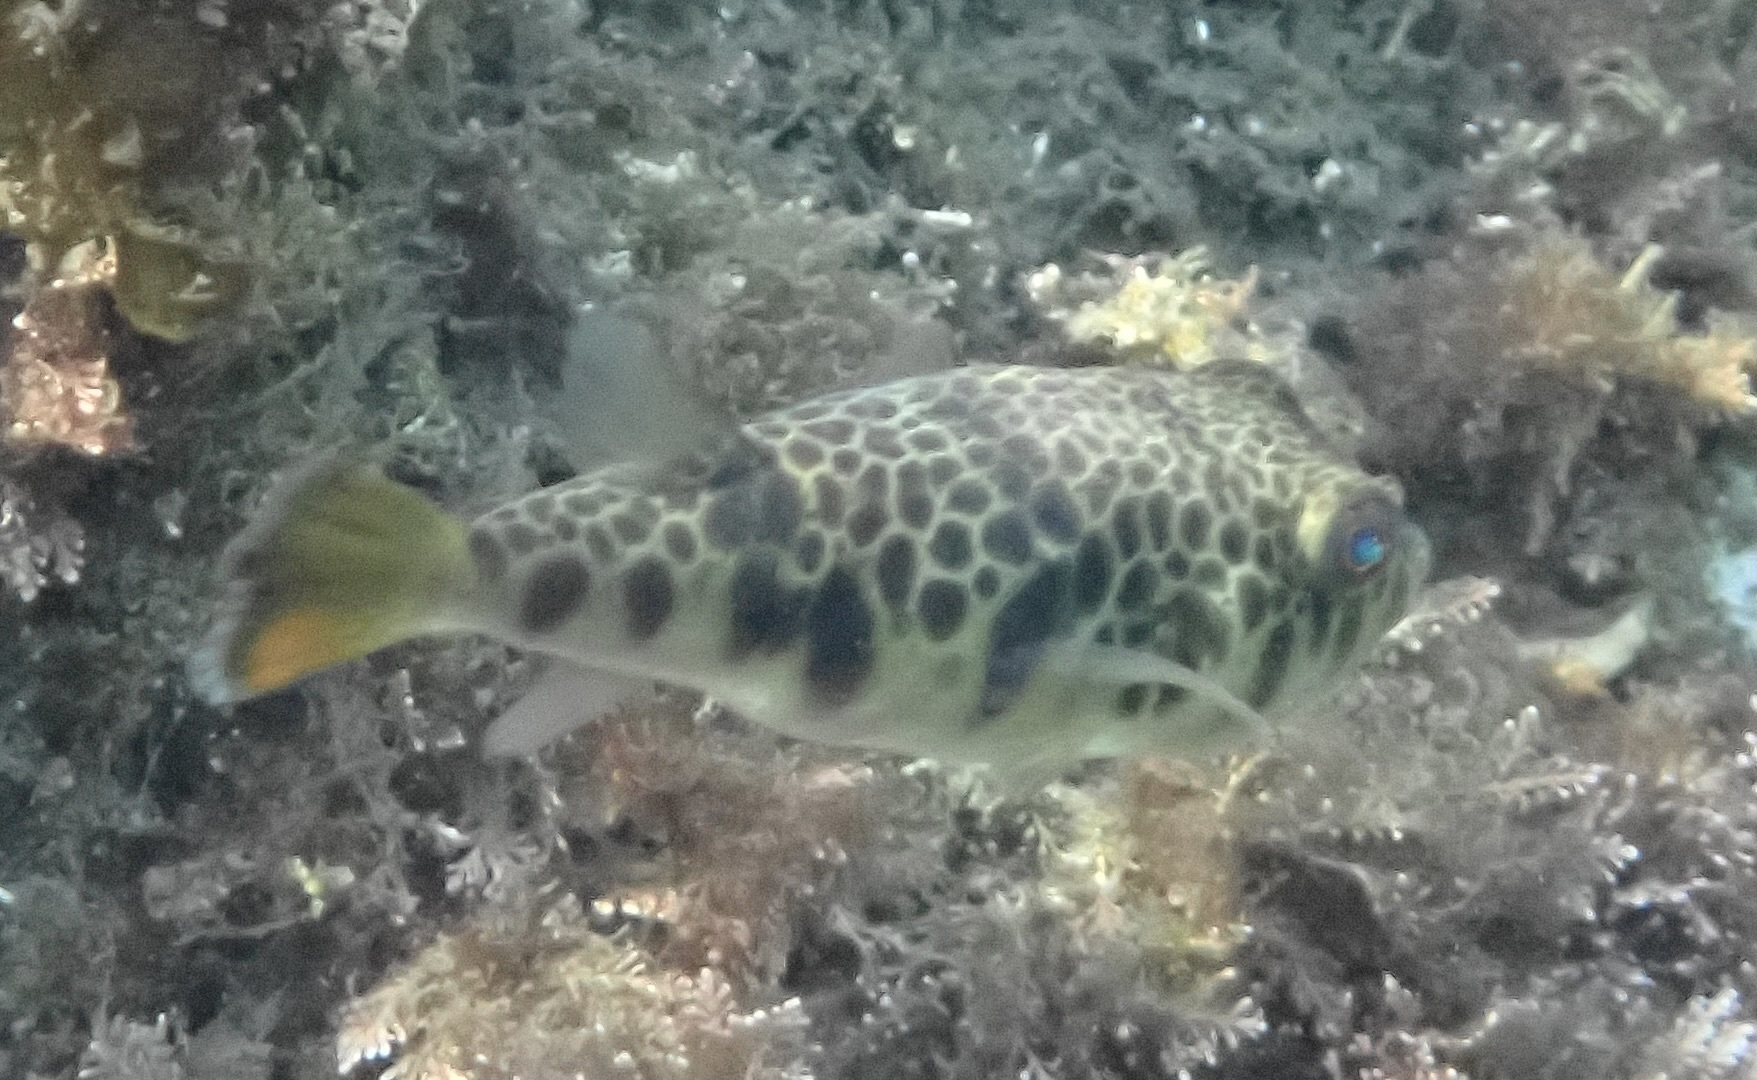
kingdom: Animalia
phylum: Chordata
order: Tetraodontiformes
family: Tetraodontidae
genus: Tetractenos
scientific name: Tetractenos glaber
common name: Smooth toadfish
